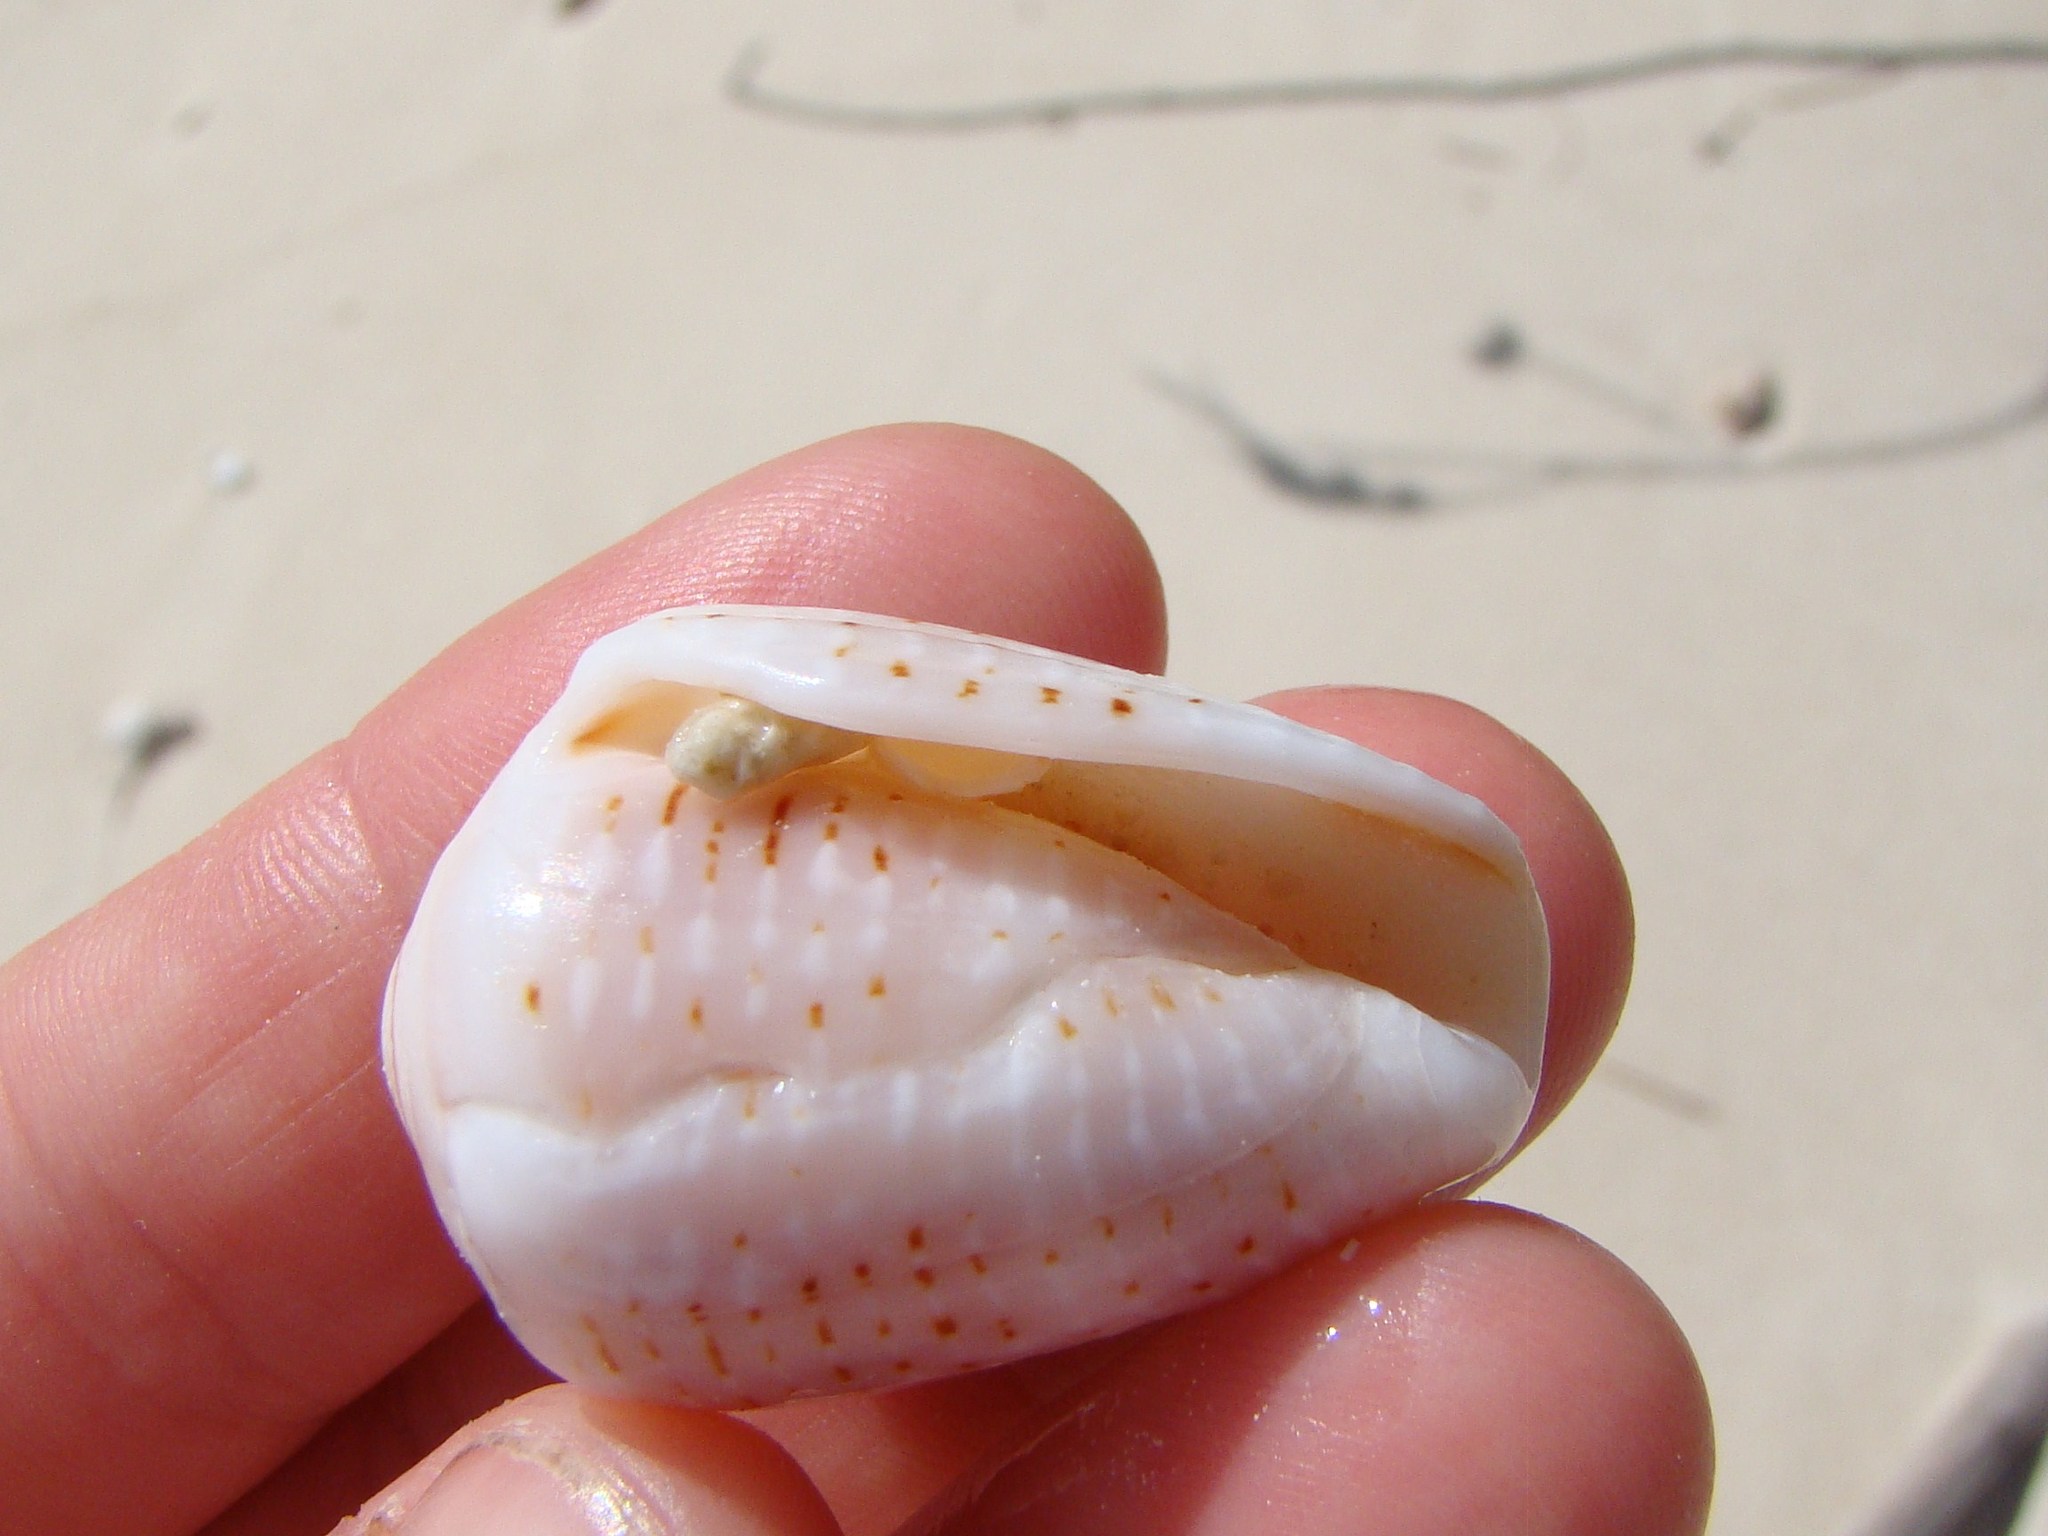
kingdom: Animalia
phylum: Mollusca
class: Gastropoda
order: Neogastropoda
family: Conidae
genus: Conus
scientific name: Conus coronatus
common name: Coronated cone
